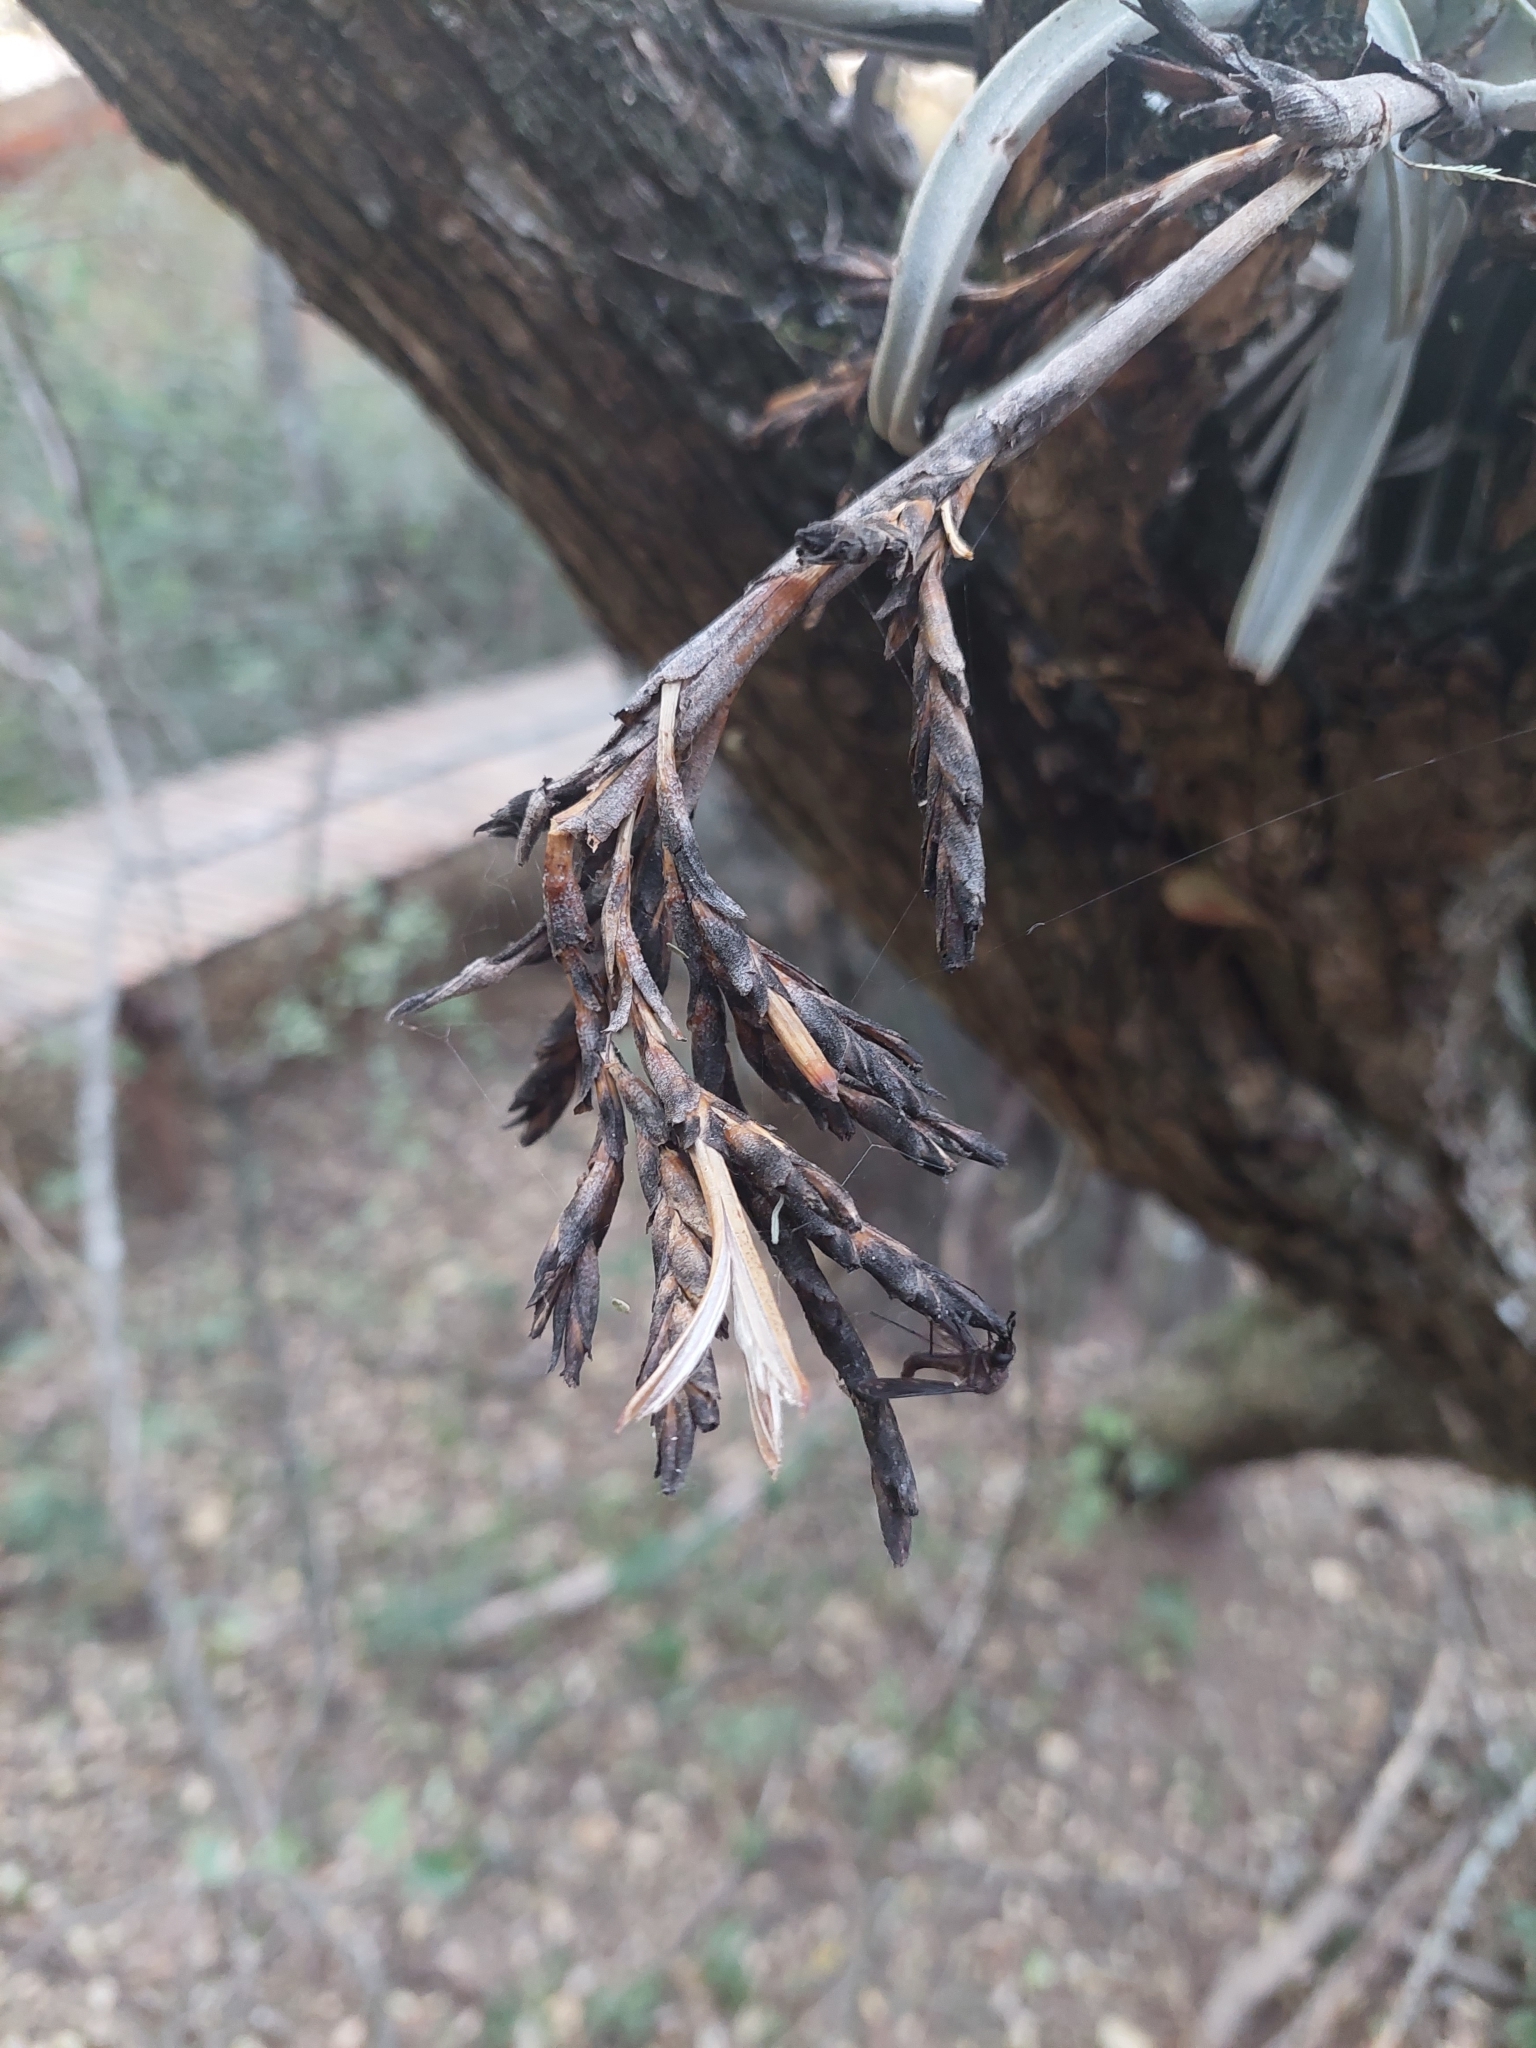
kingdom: Plantae
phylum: Tracheophyta
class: Liliopsida
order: Poales
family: Bromeliaceae
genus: Tillandsia
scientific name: Tillandsia duratii
